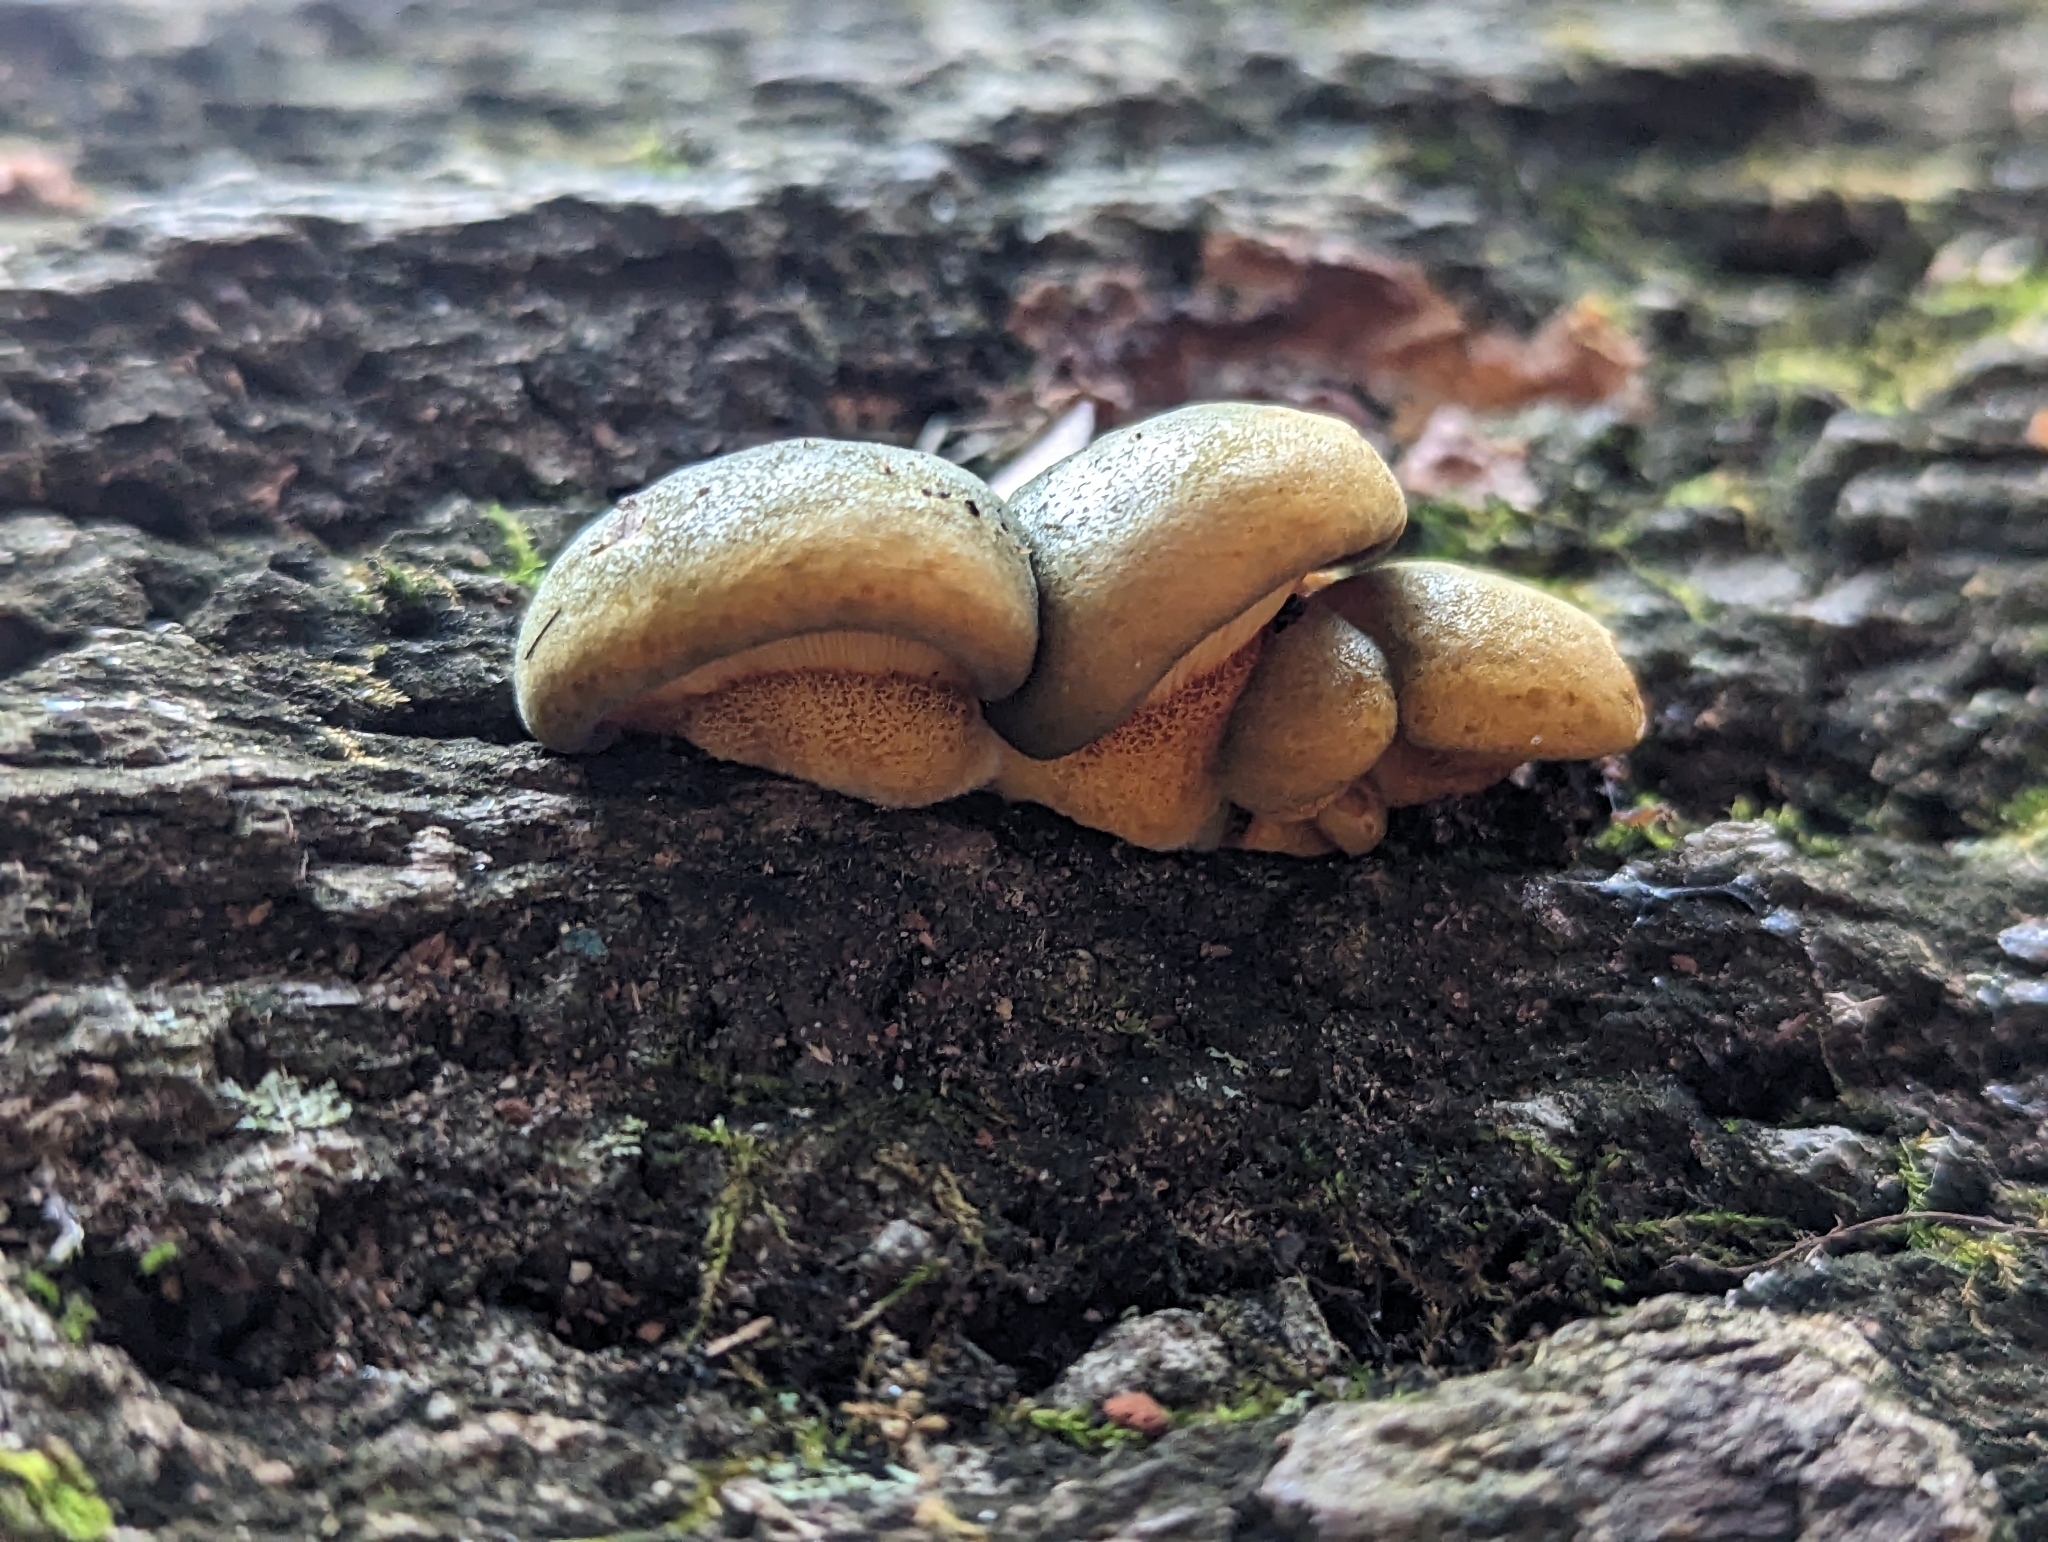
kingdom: Fungi
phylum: Basidiomycota
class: Agaricomycetes
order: Agaricales
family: Sarcomyxaceae
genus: Sarcomyxa
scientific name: Sarcomyxa serotina
